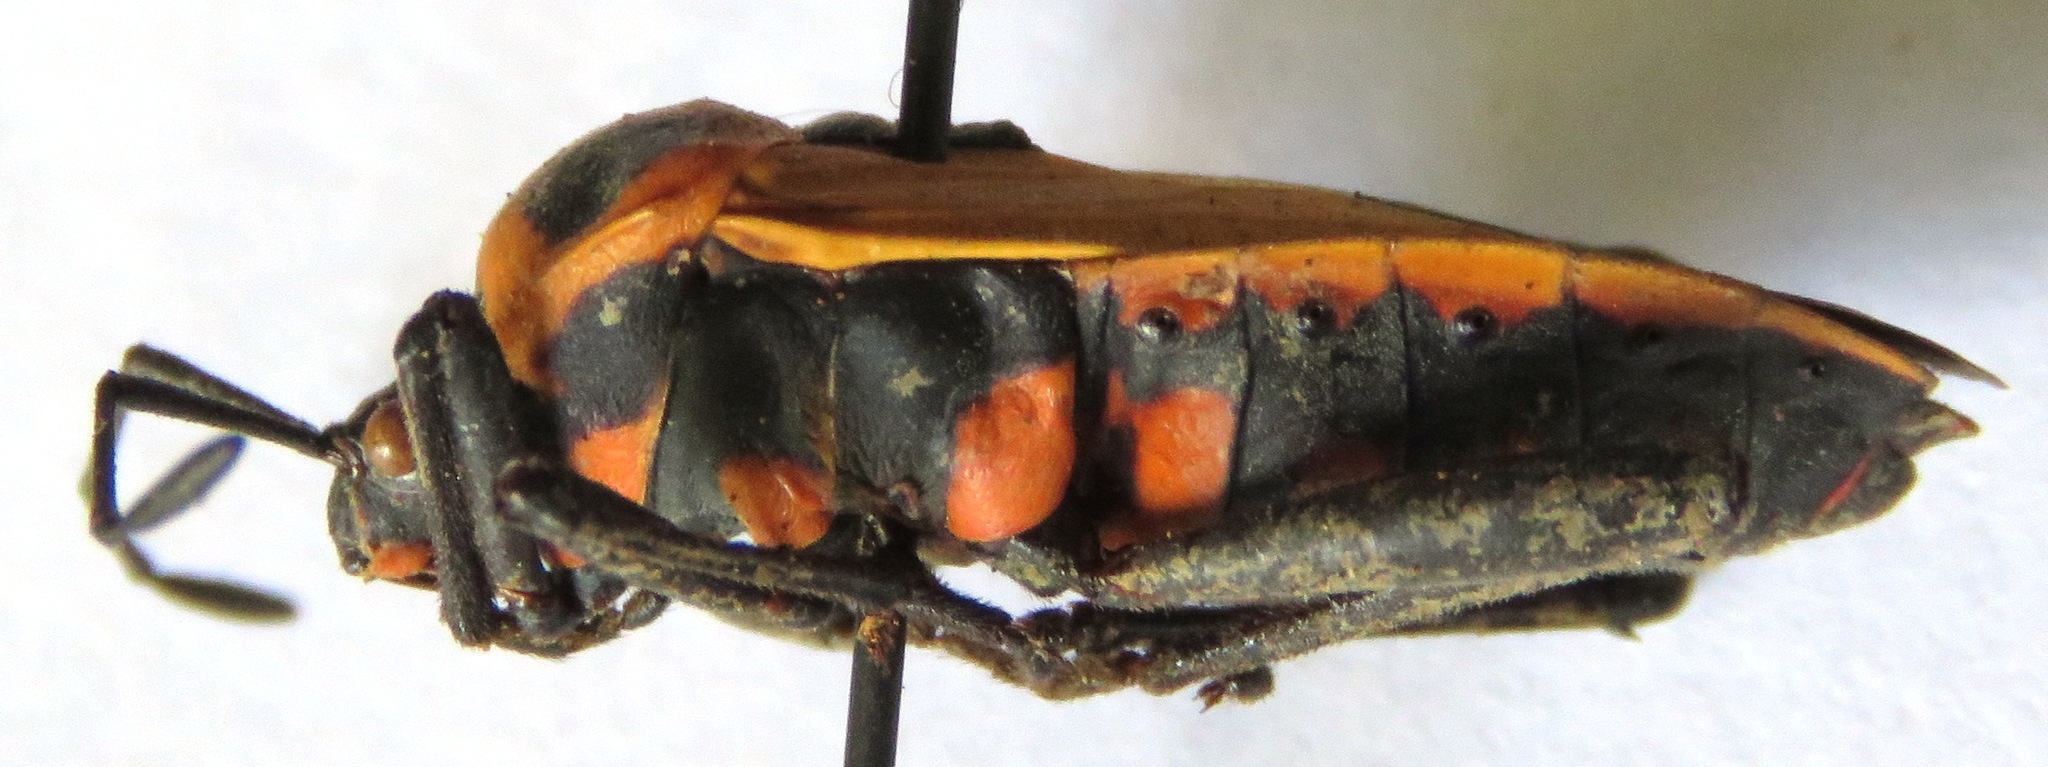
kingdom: Animalia
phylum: Arthropoda
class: Insecta
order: Hemiptera
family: Coreidae
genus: Sagotylus
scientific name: Sagotylus confluens
